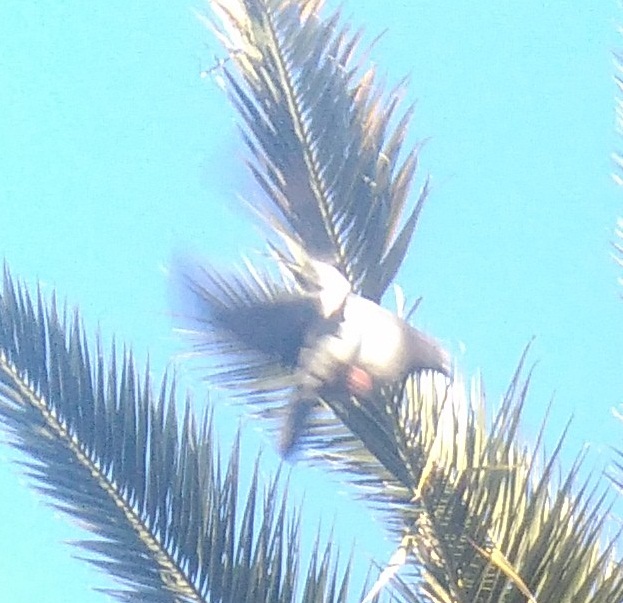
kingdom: Animalia
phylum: Chordata
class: Aves
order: Columbiformes
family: Columbidae
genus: Columba
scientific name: Columba livia
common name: Rock pigeon
